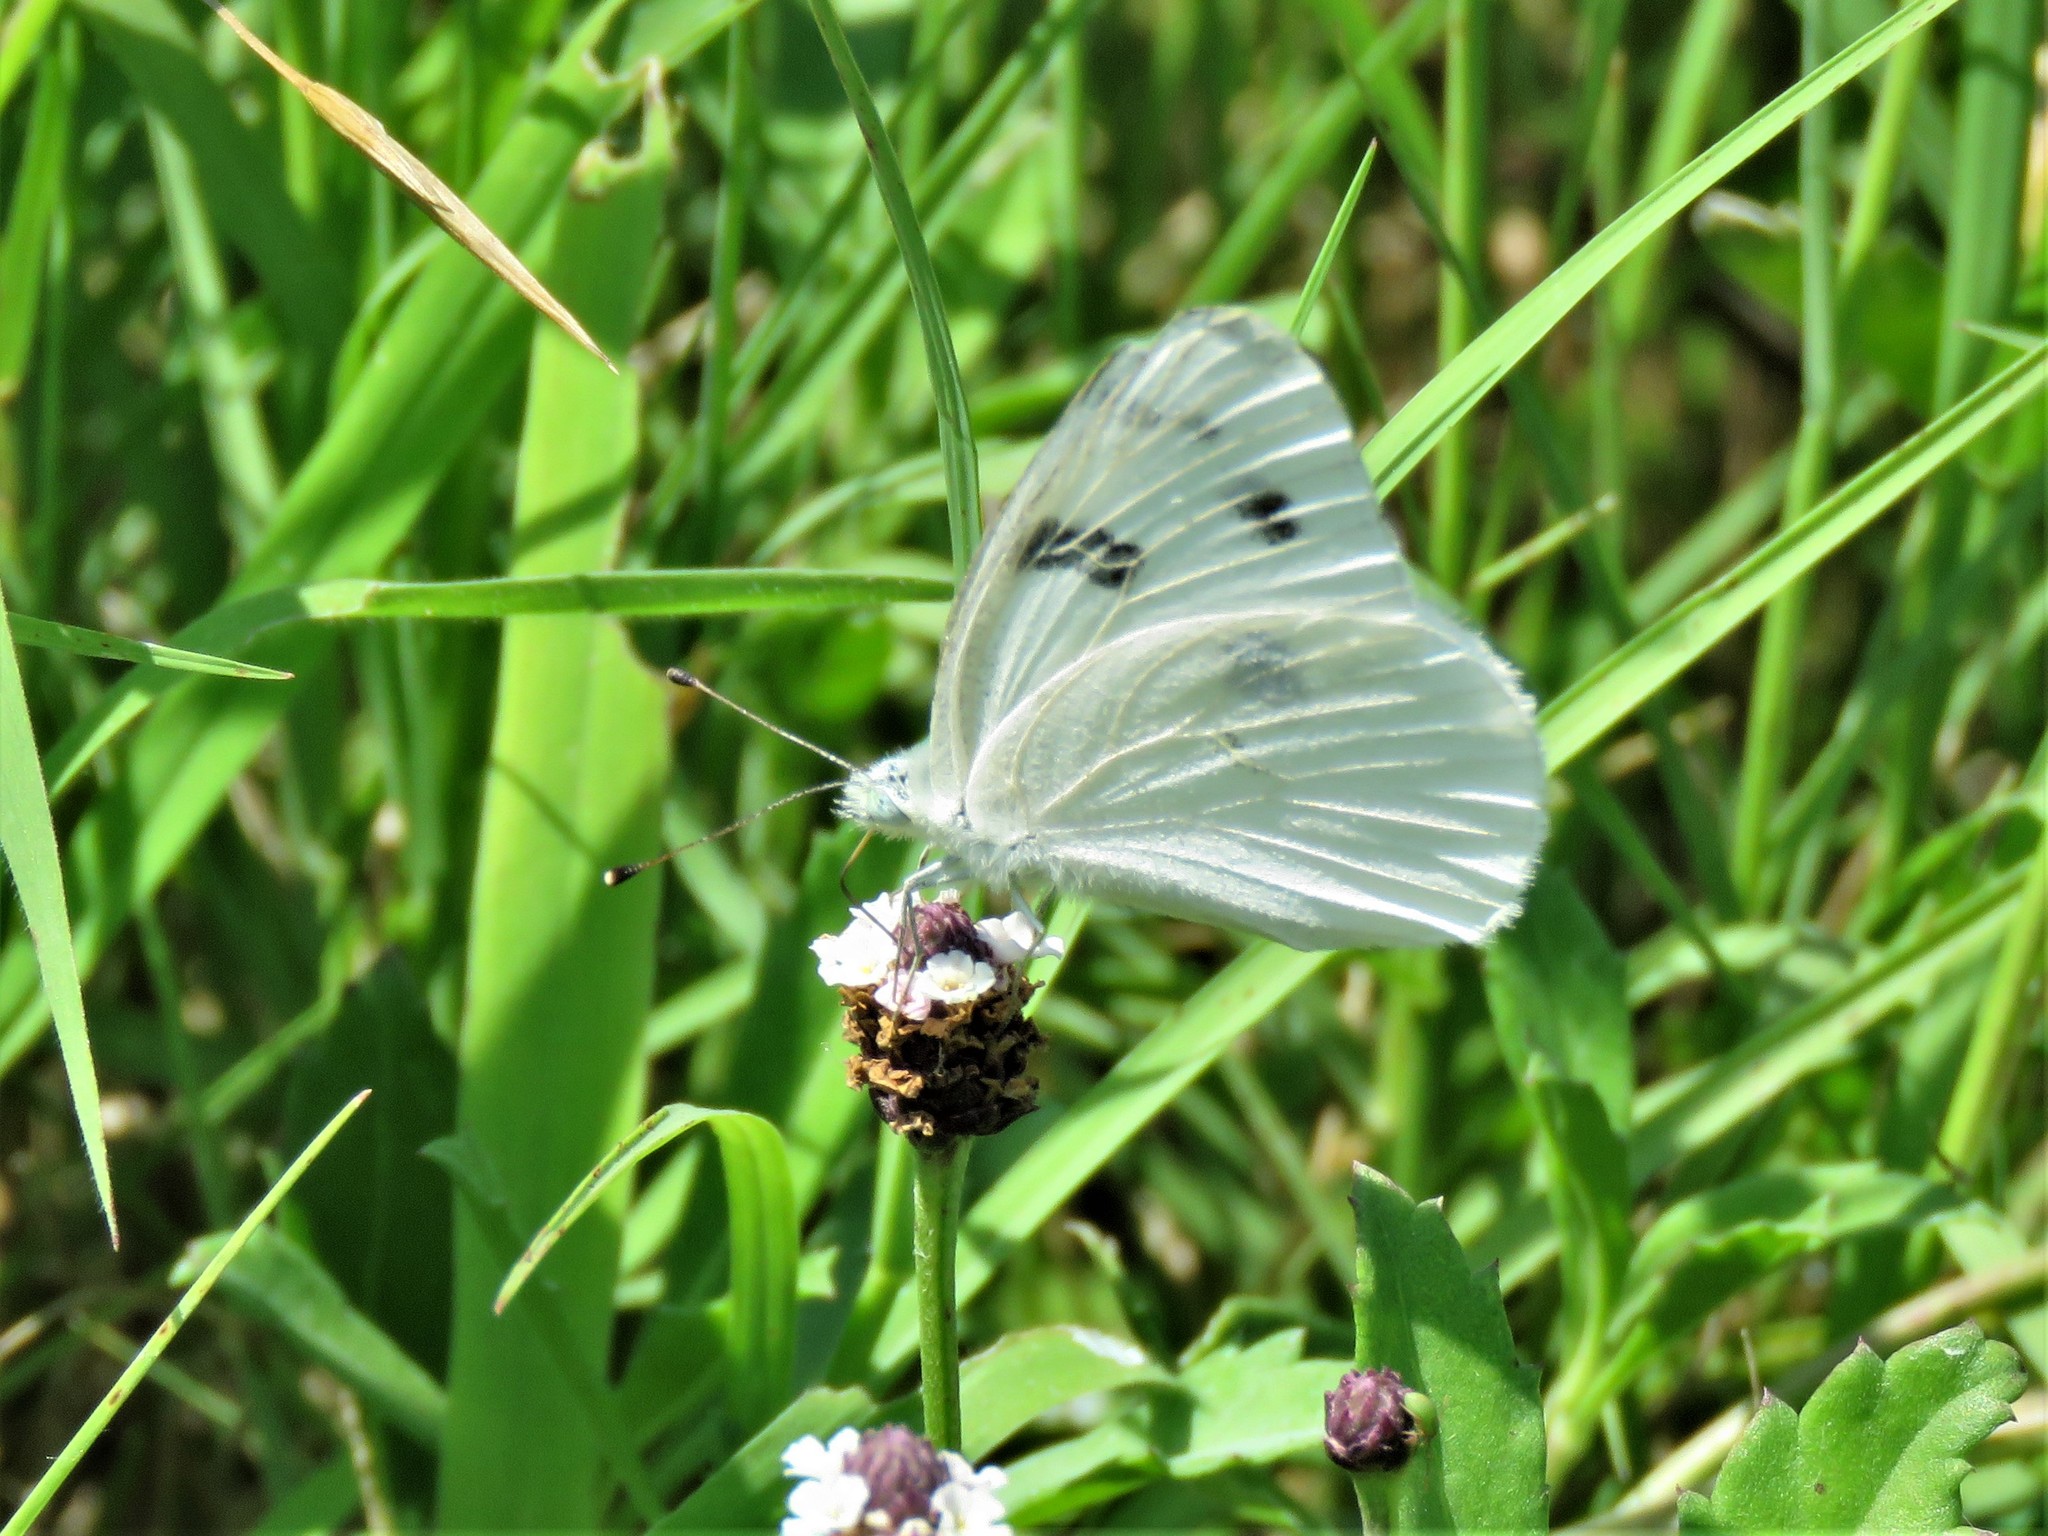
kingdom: Animalia
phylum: Arthropoda
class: Insecta
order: Lepidoptera
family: Pieridae
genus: Pontia
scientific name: Pontia protodice
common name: Checkered white
